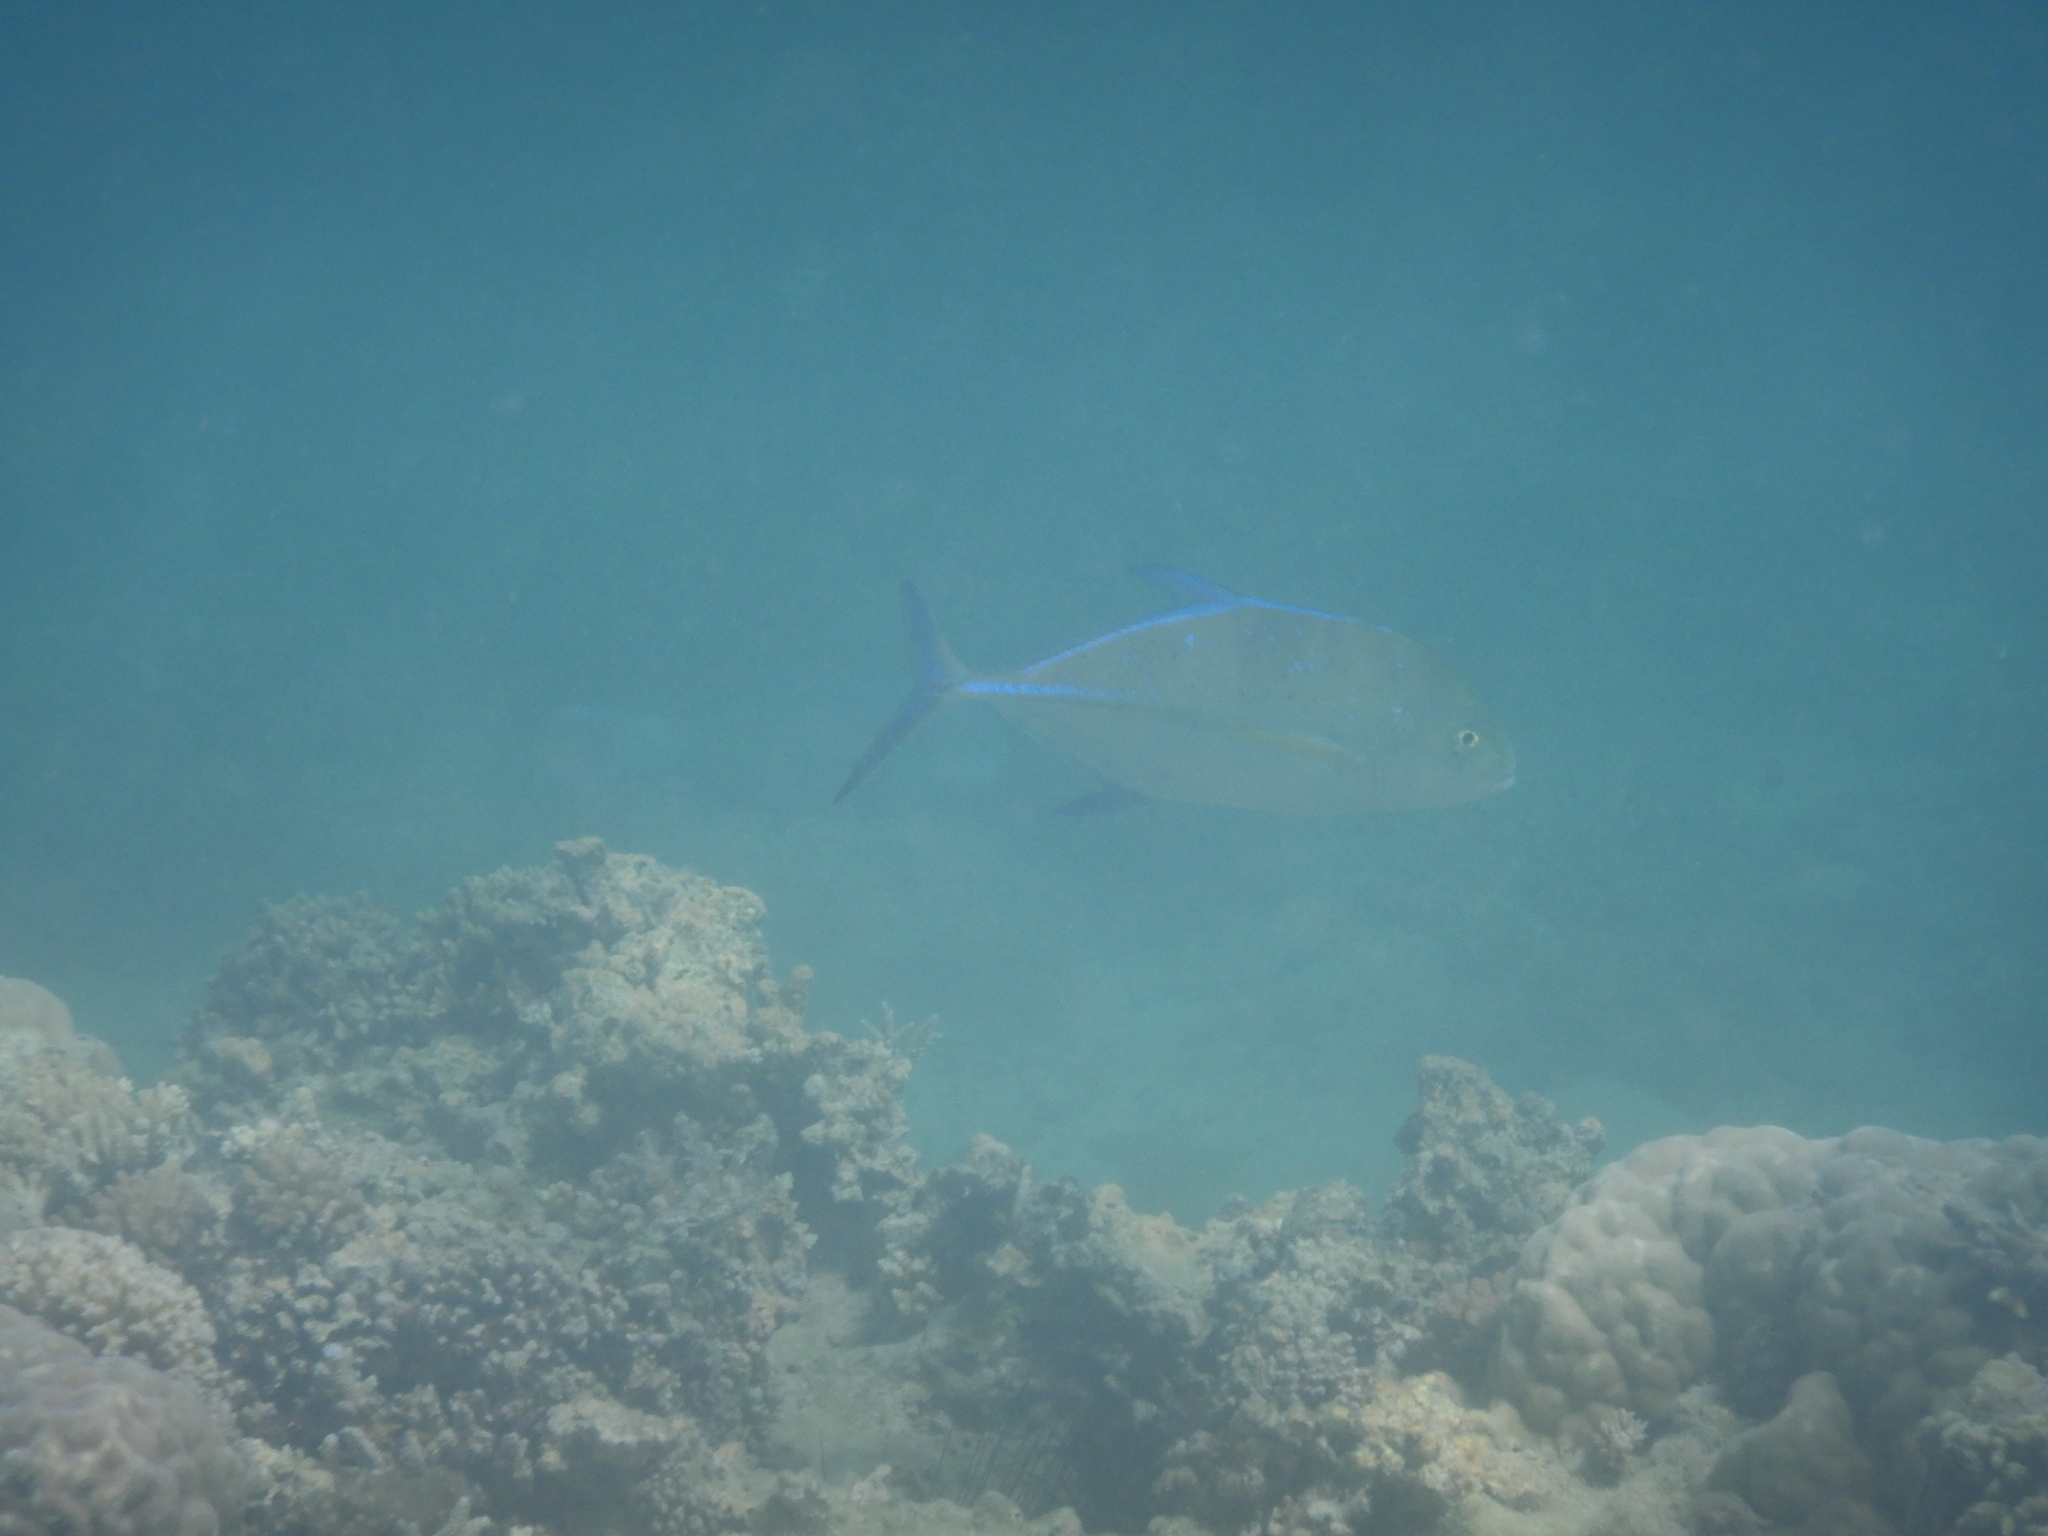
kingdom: Animalia
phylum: Chordata
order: Perciformes
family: Carangidae
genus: Caranx
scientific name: Caranx melampygus
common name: Bluefin trevally
